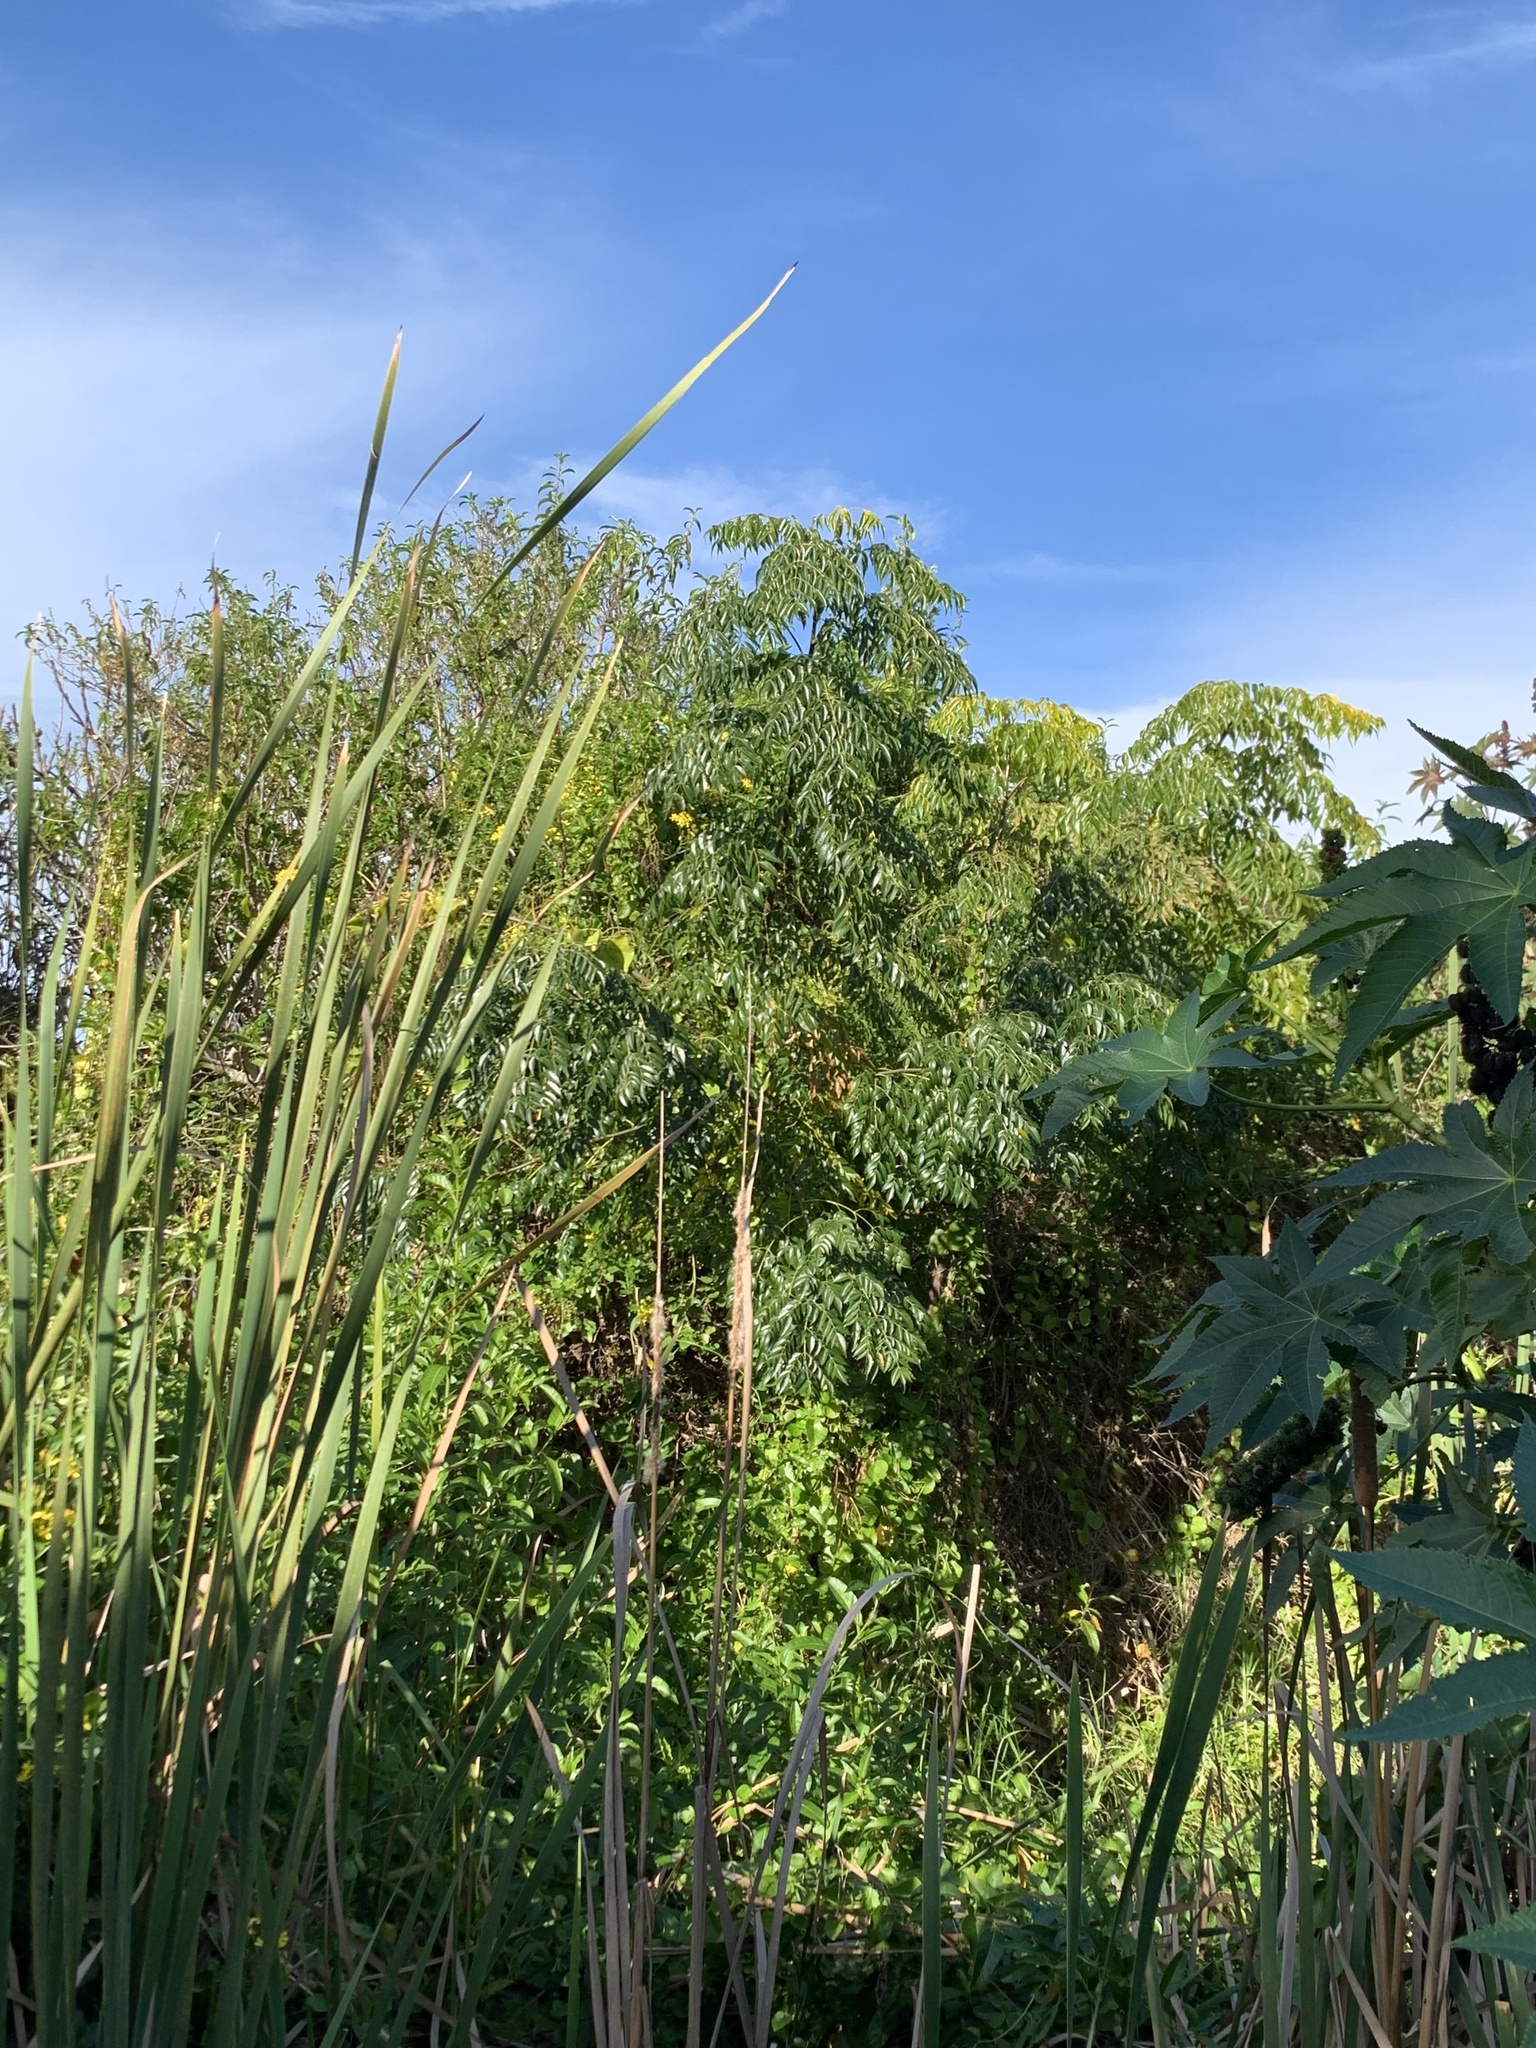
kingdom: Plantae
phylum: Tracheophyta
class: Magnoliopsida
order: Sapindales
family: Meliaceae
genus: Melia
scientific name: Melia azedarach
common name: Chinaberrytree
